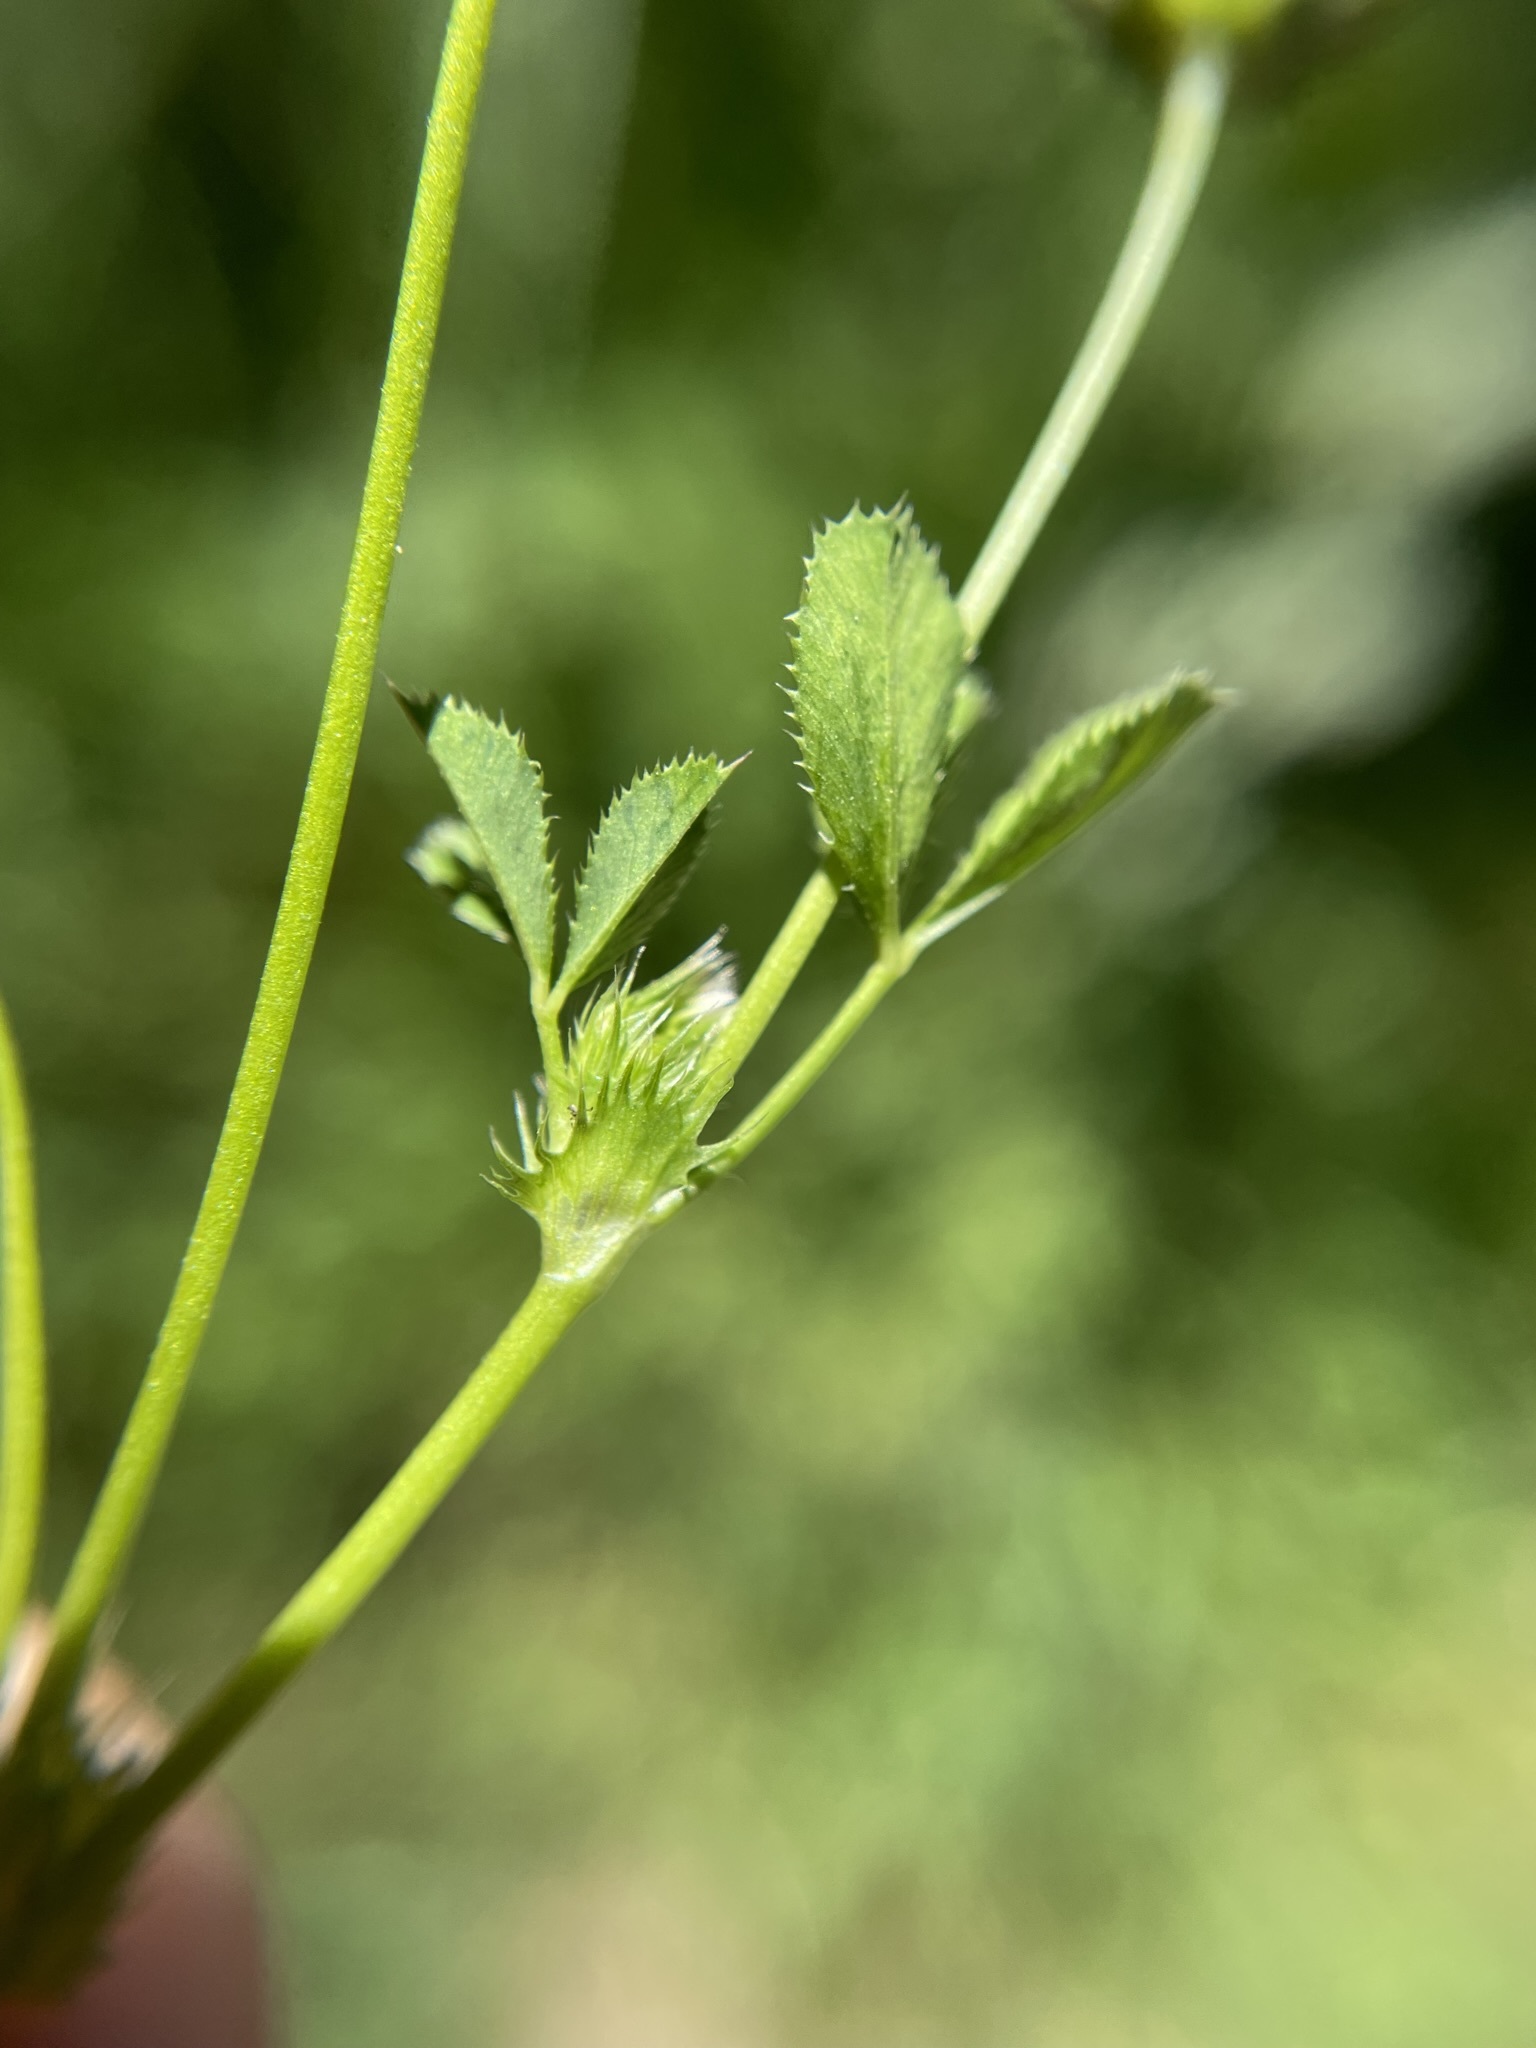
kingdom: Plantae
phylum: Tracheophyta
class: Magnoliopsida
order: Fabales
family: Fabaceae
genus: Trifolium
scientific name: Trifolium variegatum
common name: Whitetip clover
